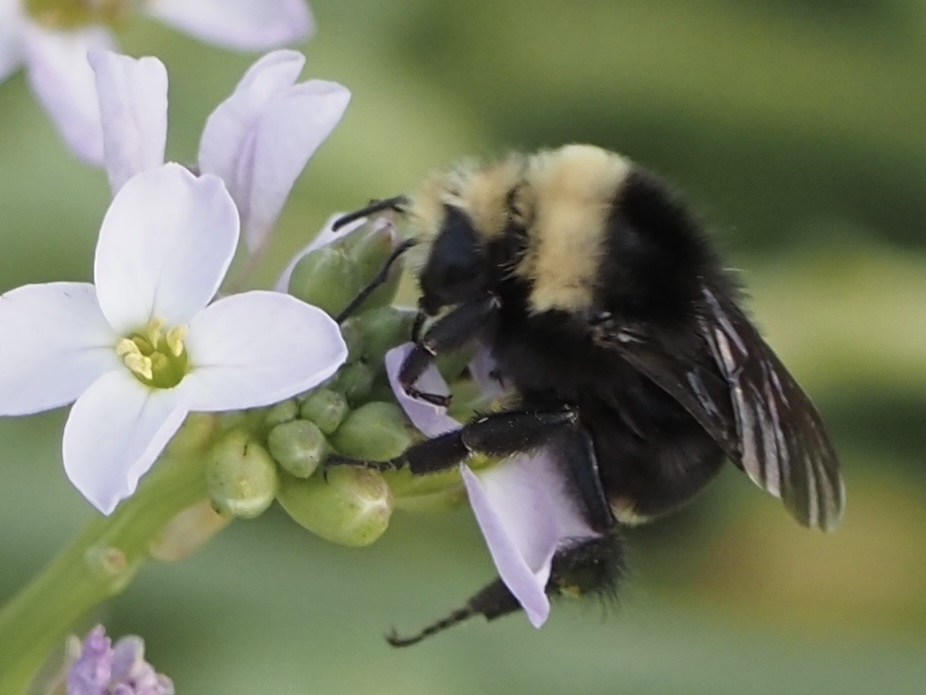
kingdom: Animalia
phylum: Arthropoda
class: Insecta
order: Hymenoptera
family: Apidae
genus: Bombus
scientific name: Bombus vosnesenskii
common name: Vosnesensky bumble bee
